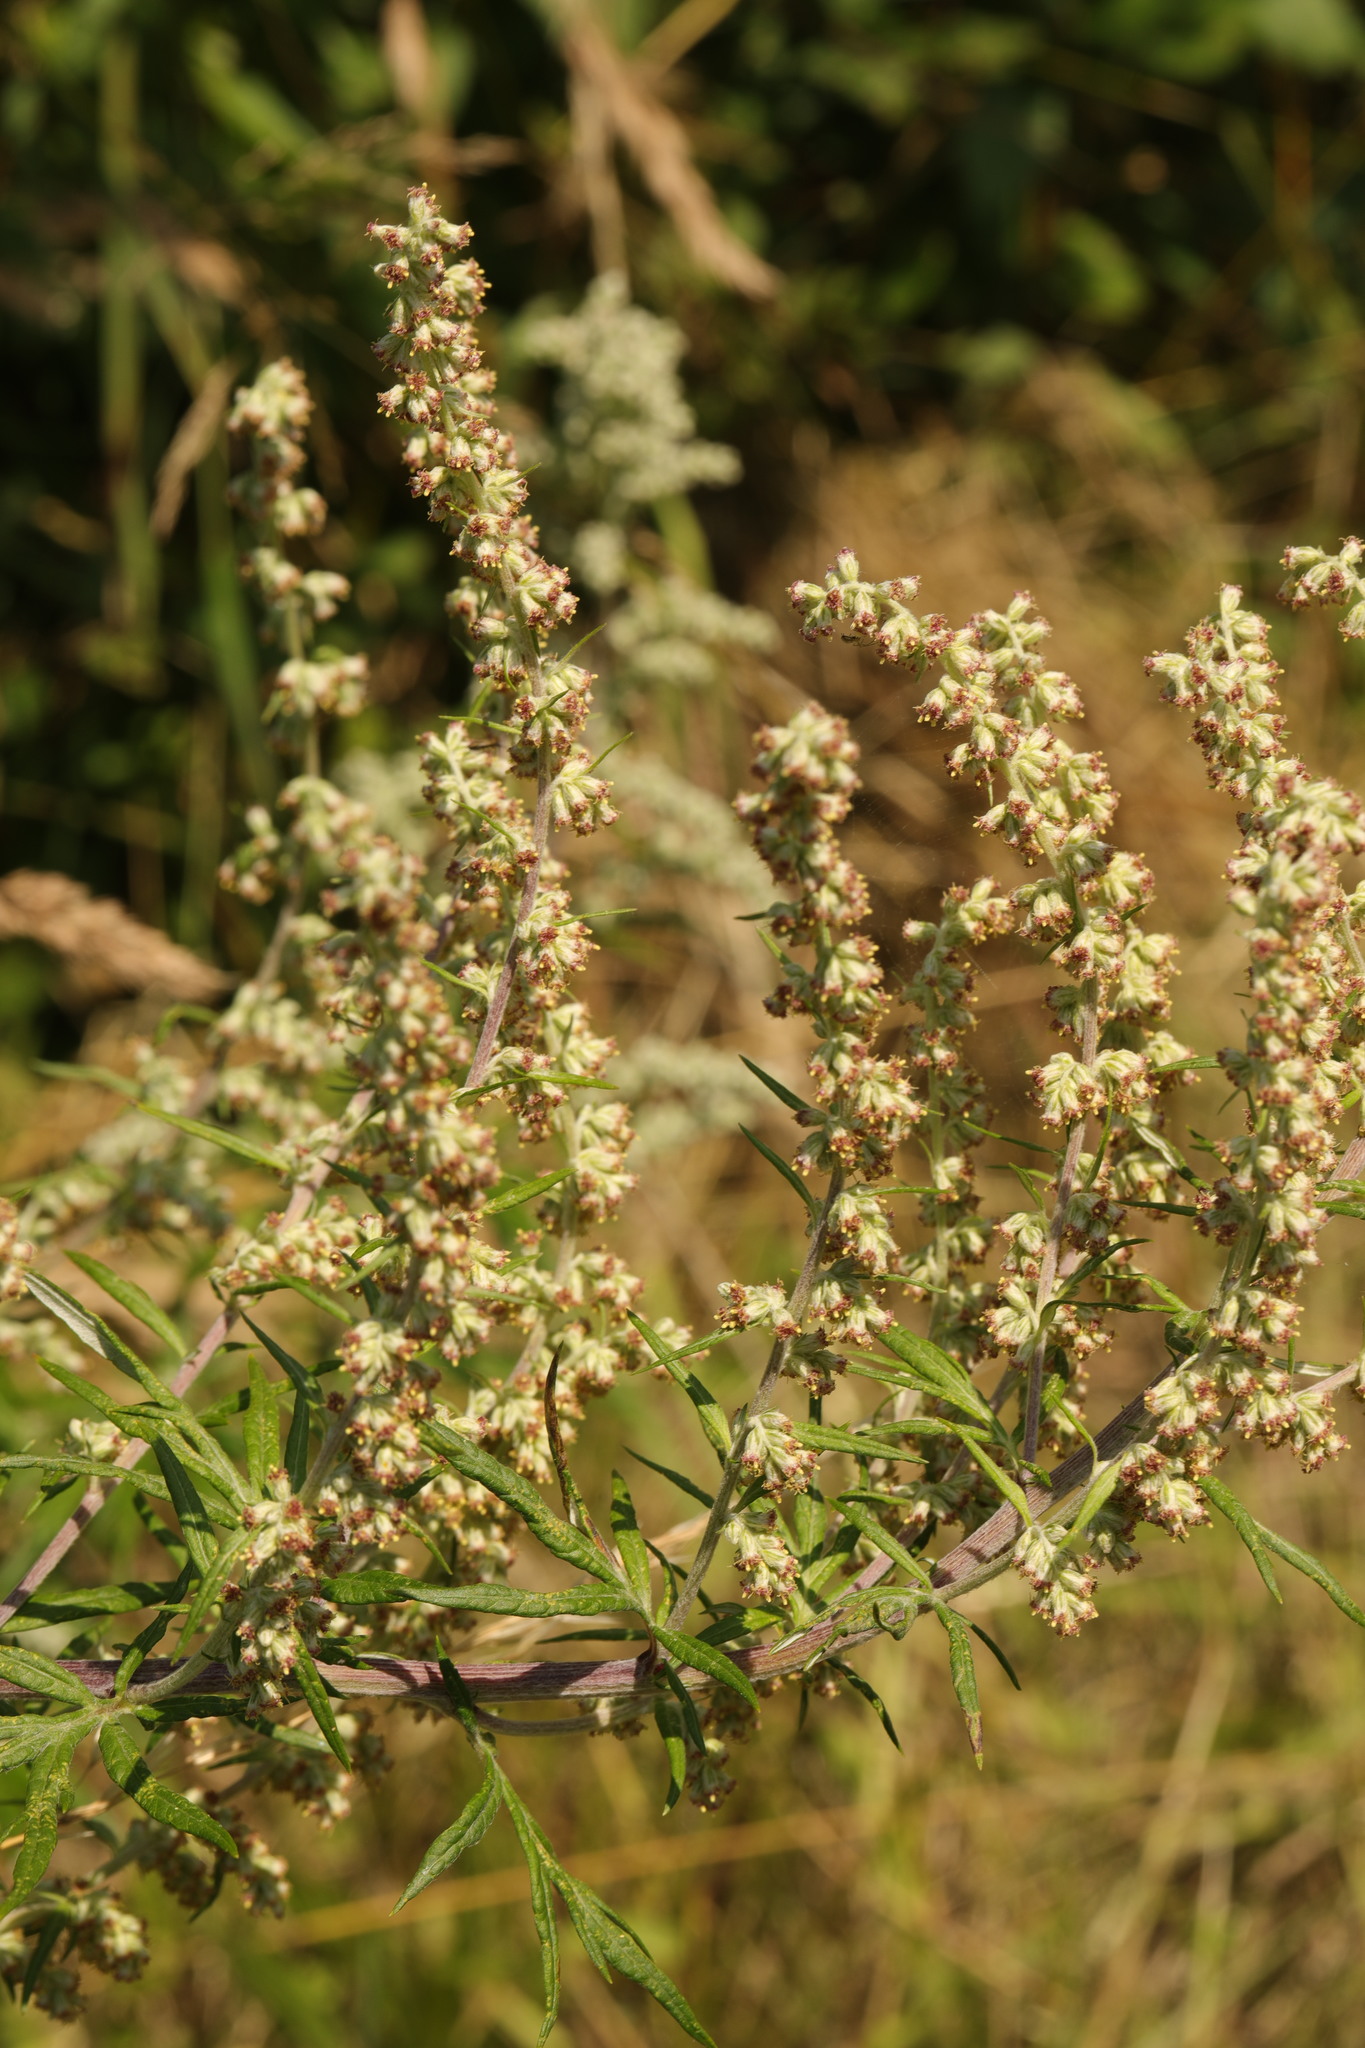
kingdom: Plantae
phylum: Tracheophyta
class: Magnoliopsida
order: Asterales
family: Asteraceae
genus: Artemisia
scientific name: Artemisia vulgaris
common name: Mugwort
